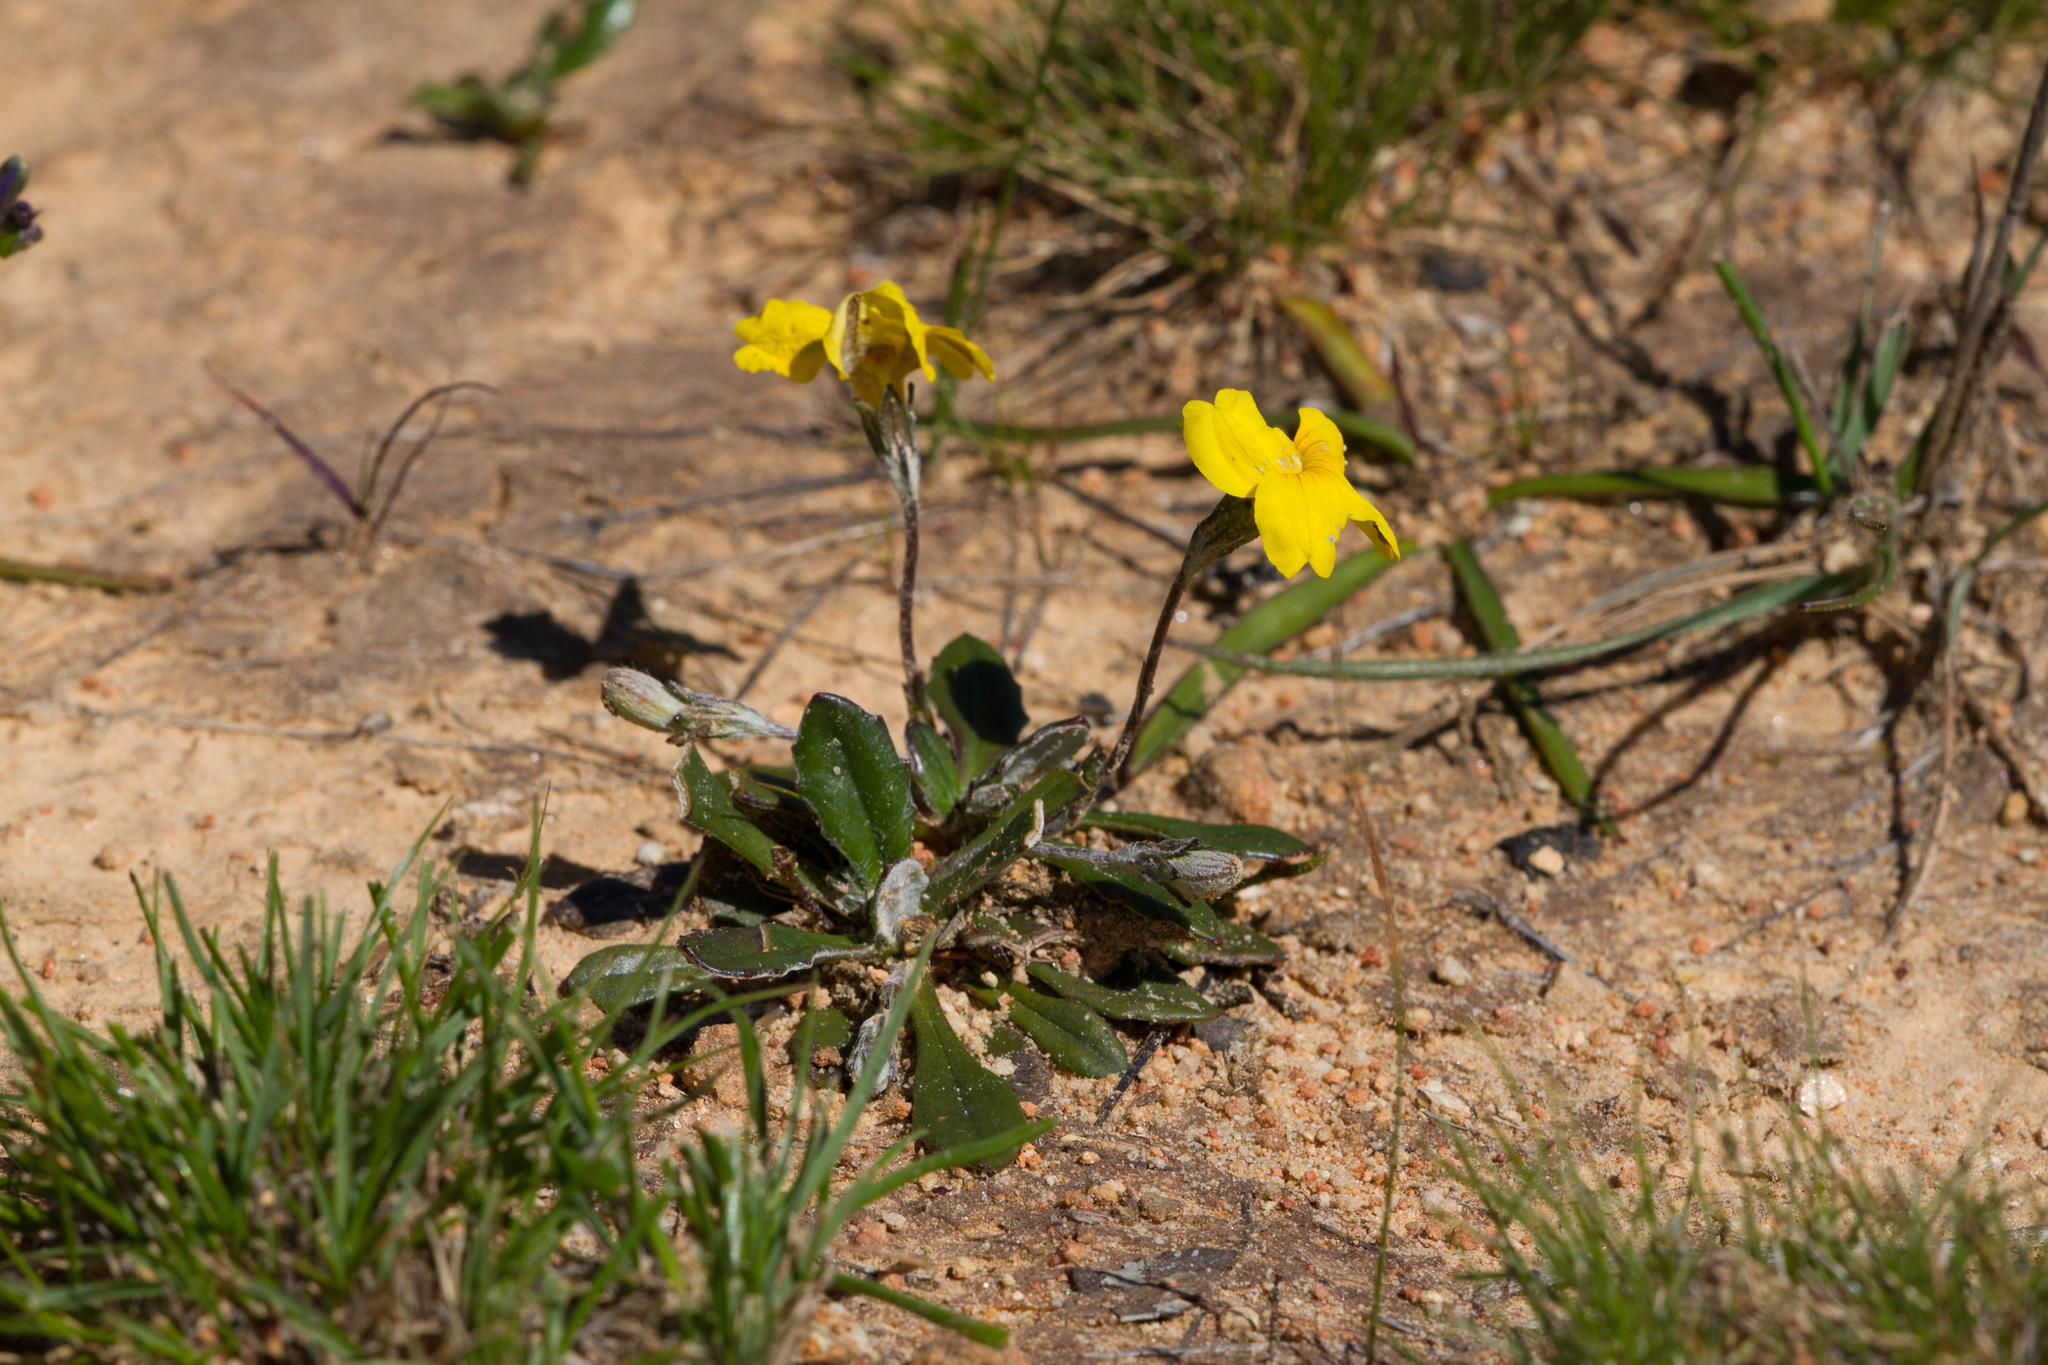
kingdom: Plantae
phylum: Tracheophyta
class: Magnoliopsida
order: Asterales
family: Goodeniaceae
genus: Goodenia
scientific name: Goodenia blackiana
